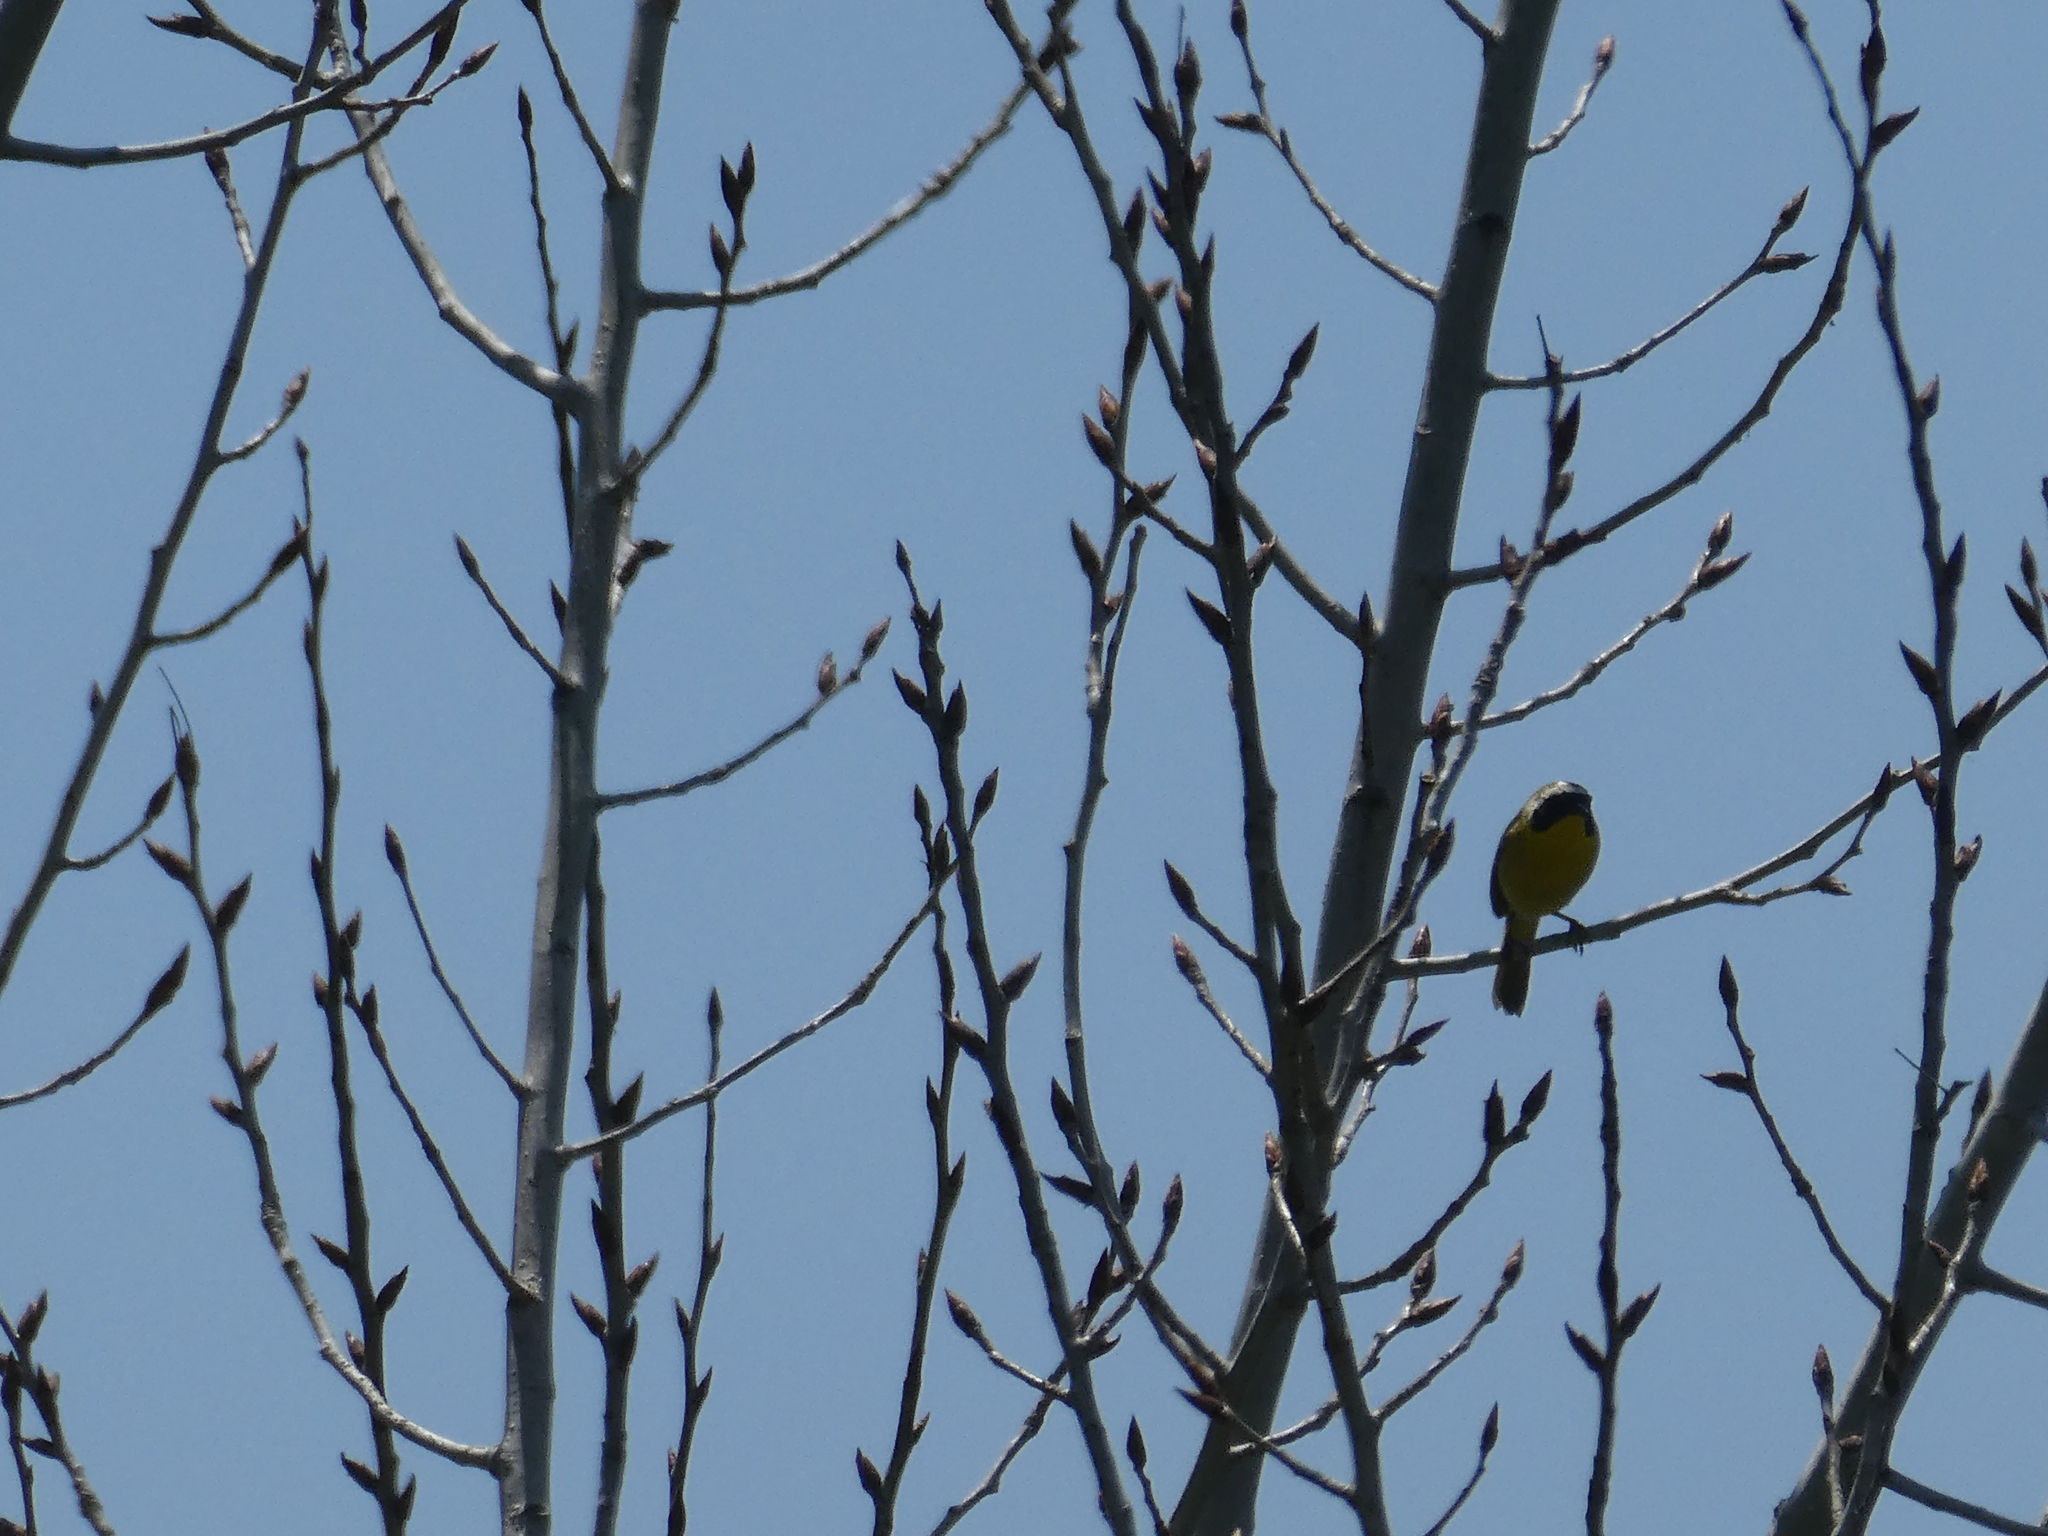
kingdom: Animalia
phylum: Chordata
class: Aves
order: Passeriformes
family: Parulidae
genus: Geothlypis
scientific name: Geothlypis trichas
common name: Common yellowthroat
